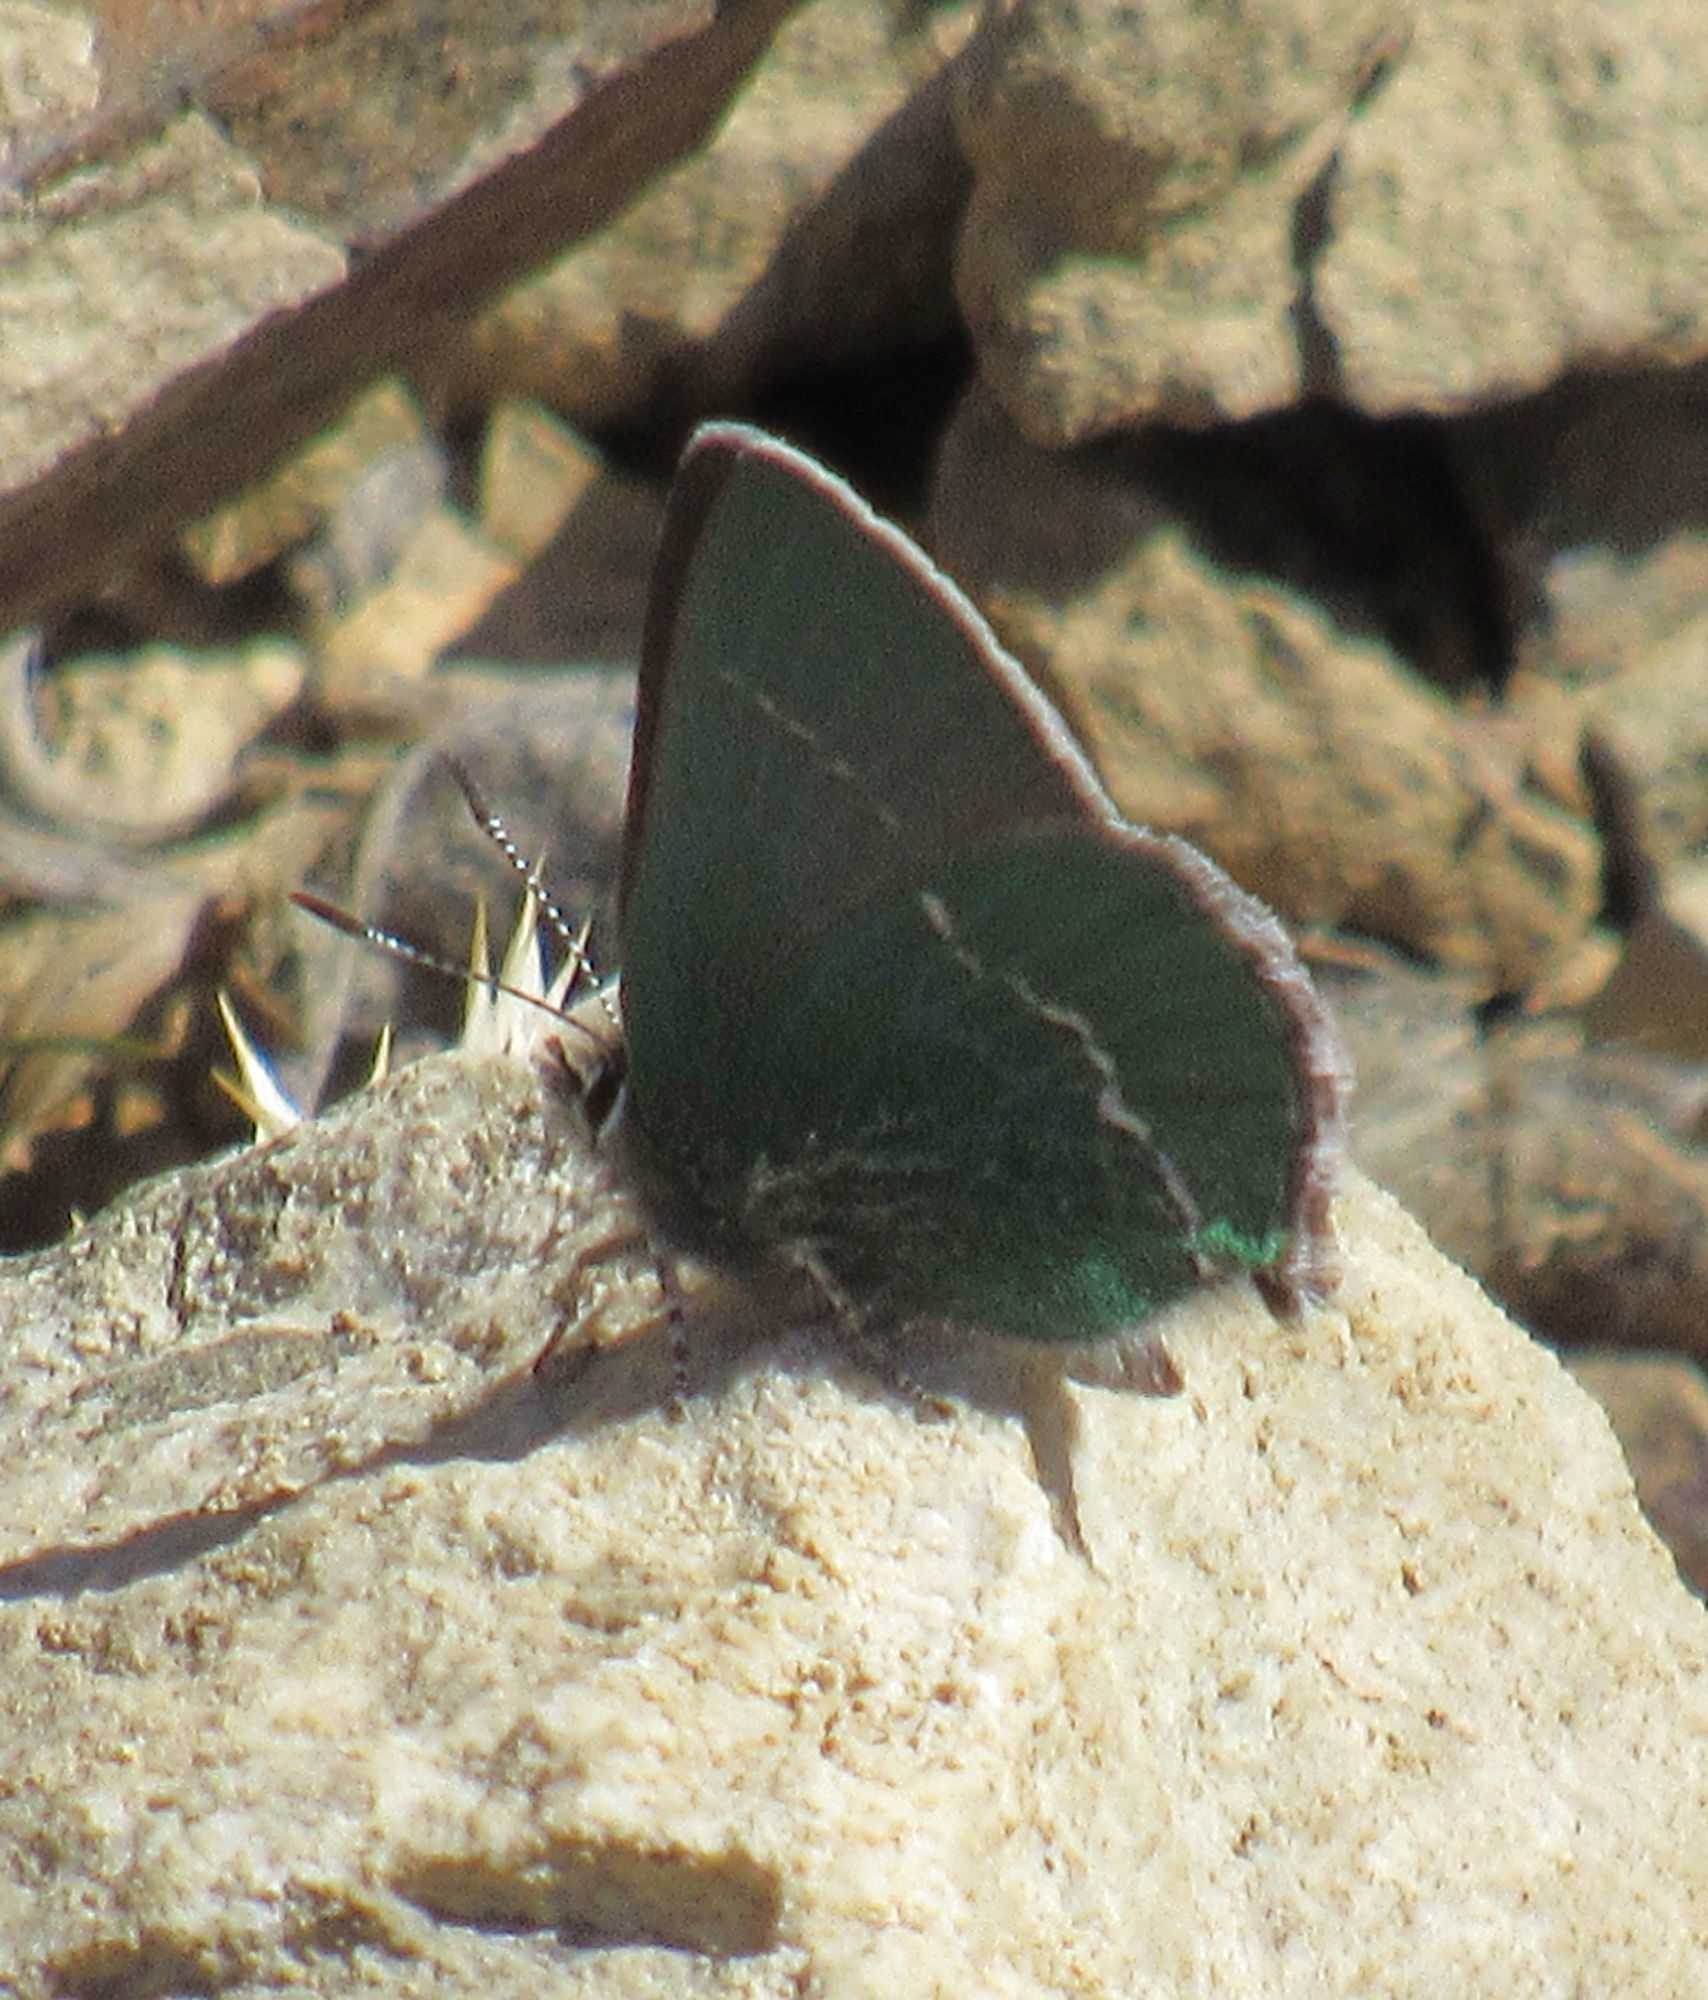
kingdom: Animalia
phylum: Arthropoda
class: Insecta
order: Lepidoptera
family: Lycaenidae
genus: Thecla
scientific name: Thecla sheridanii
